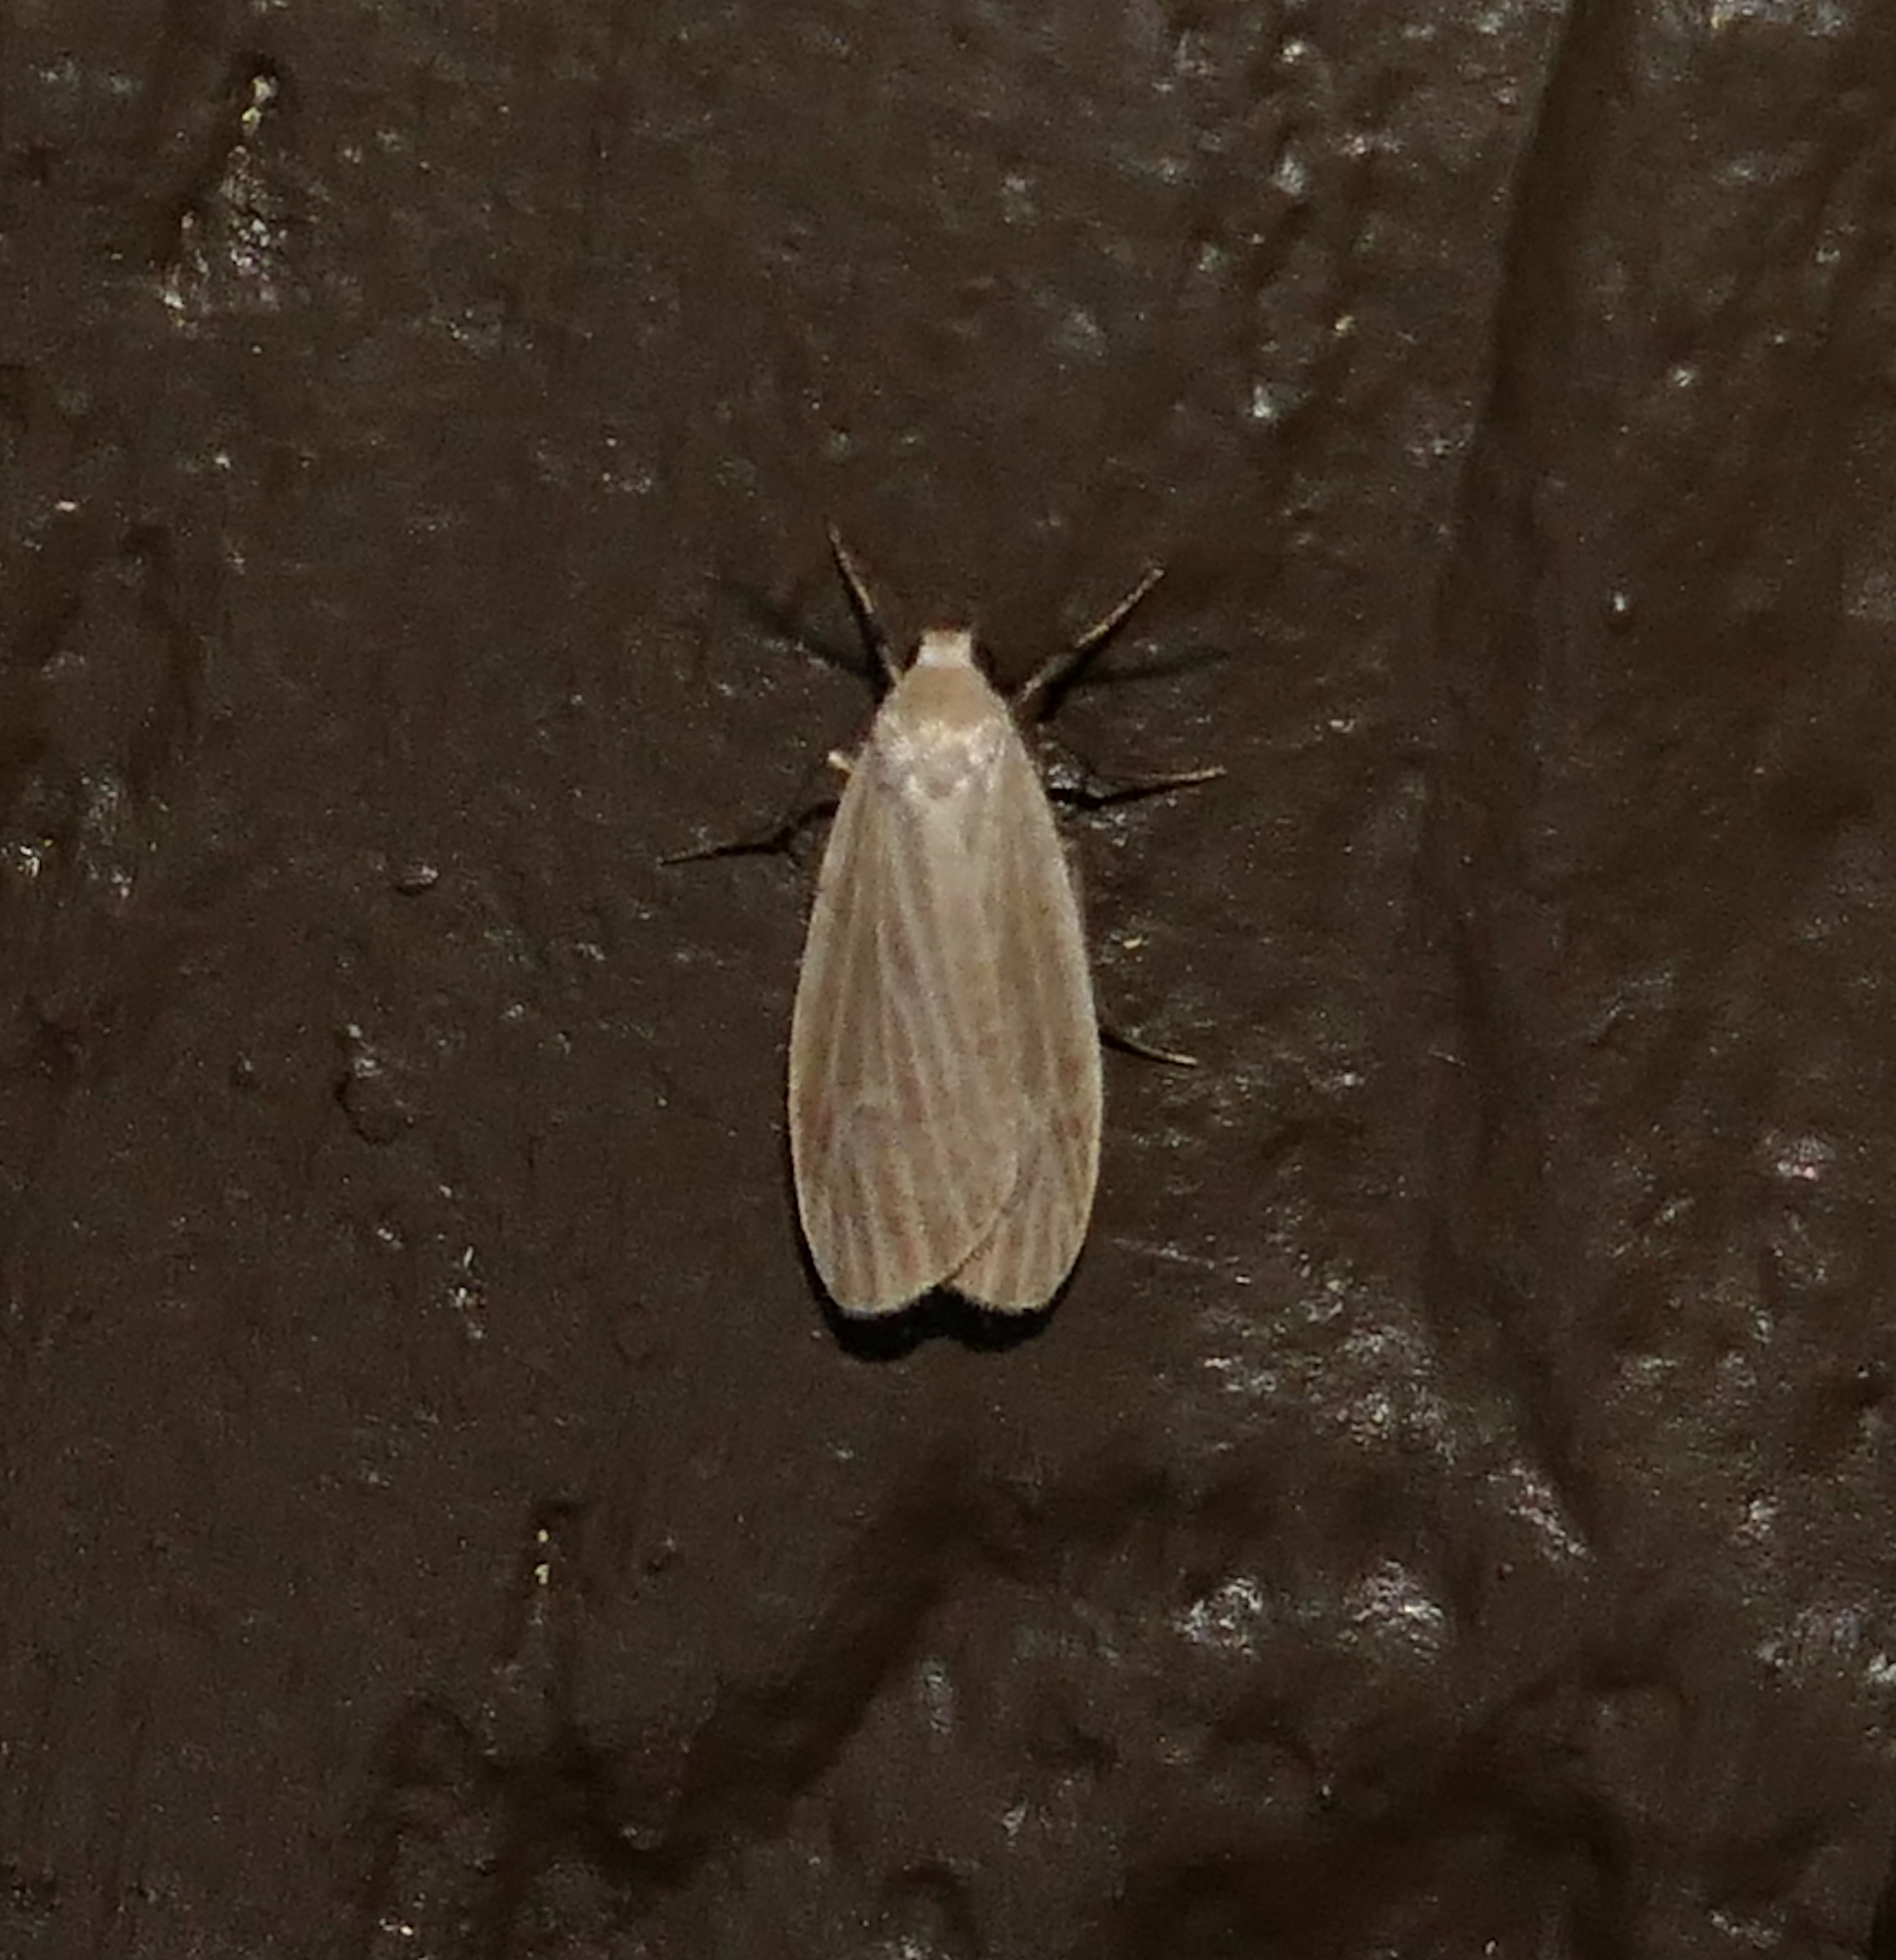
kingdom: Animalia
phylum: Arthropoda
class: Insecta
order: Lepidoptera
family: Erebidae
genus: Crambidia
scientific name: Crambidia pallida
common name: Pale lichen moth
